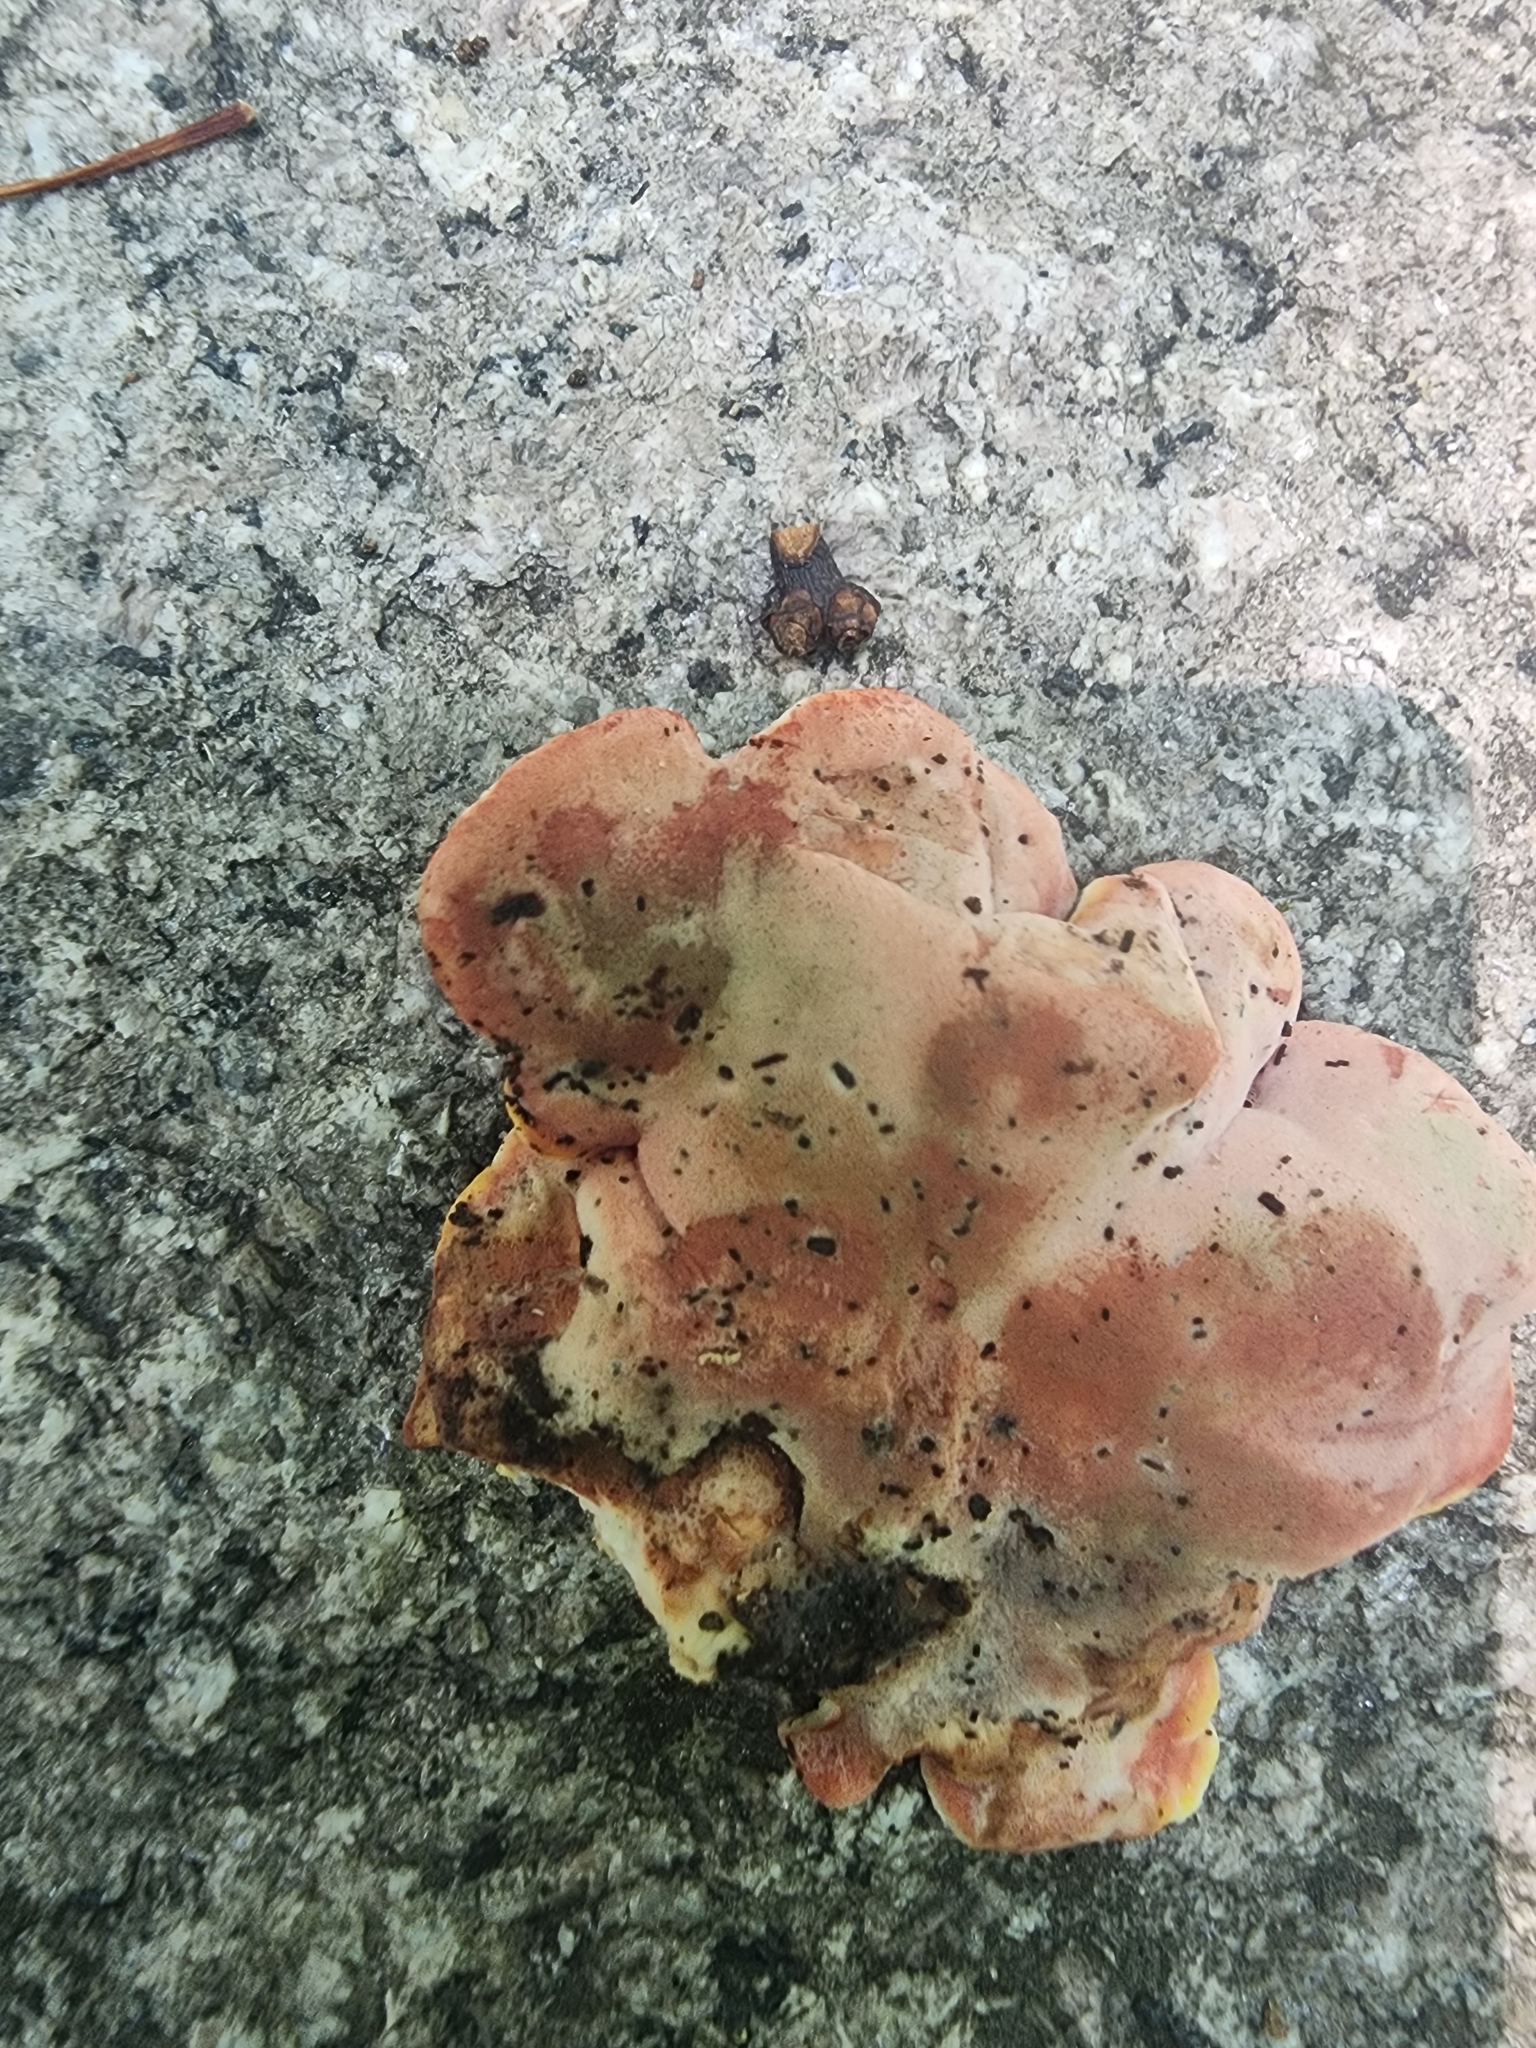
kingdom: Fungi
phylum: Basidiomycota
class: Agaricomycetes
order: Polyporales
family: Irpicaceae
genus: Byssomerulius
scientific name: Byssomerulius incarnatus
